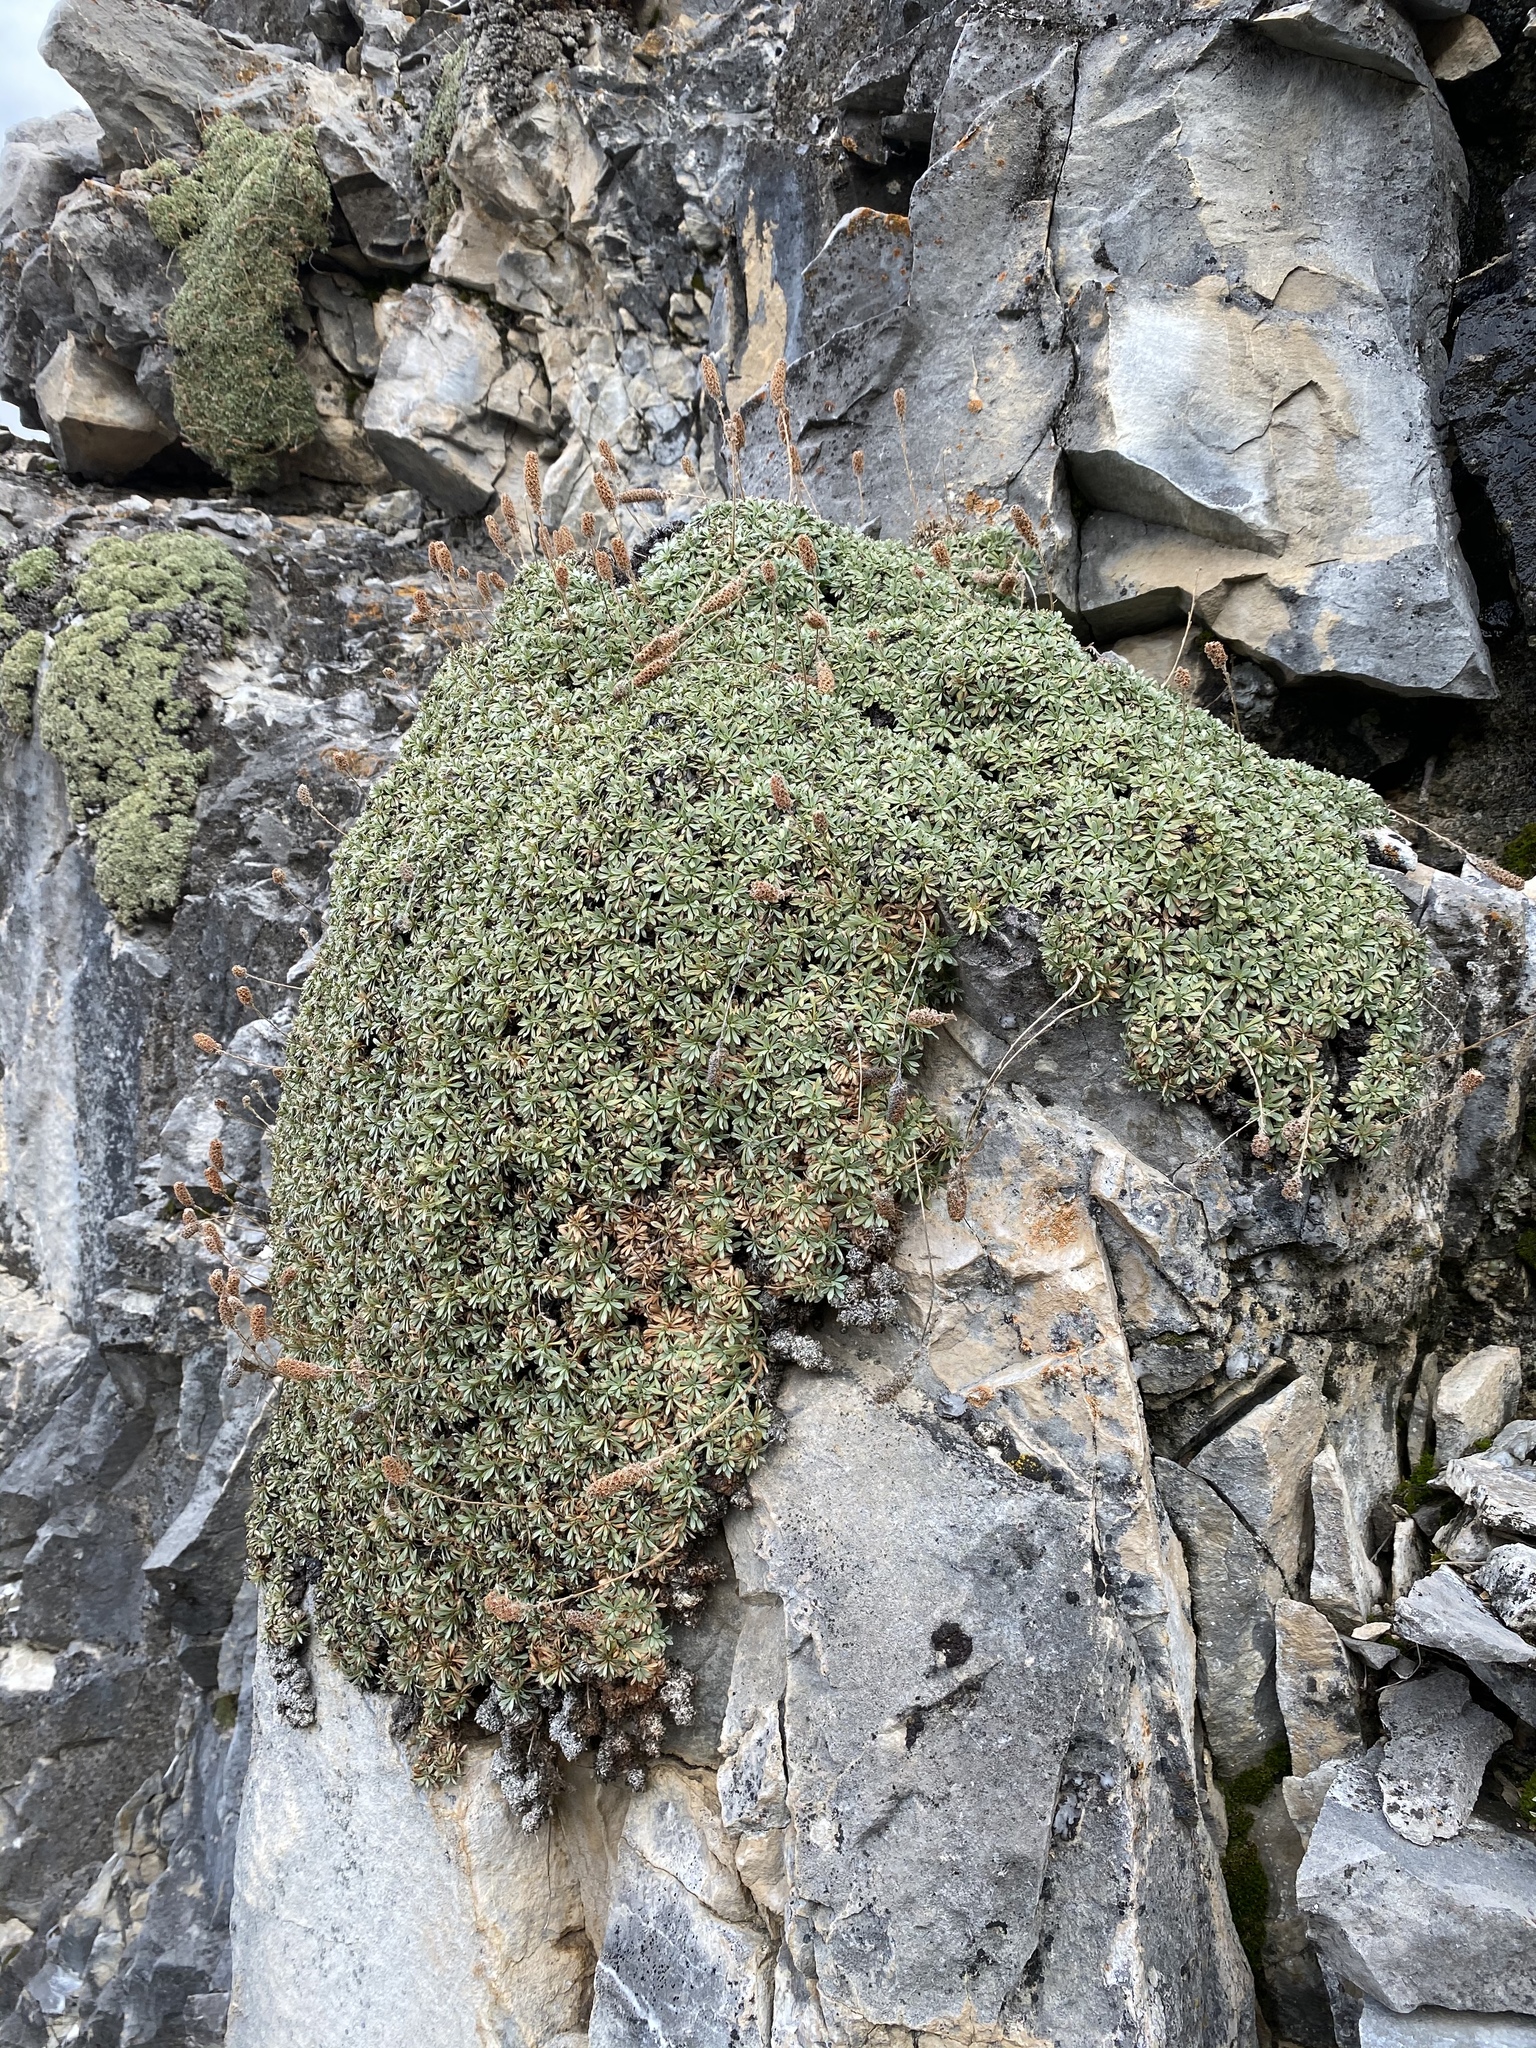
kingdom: Plantae
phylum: Tracheophyta
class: Magnoliopsida
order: Rosales
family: Rosaceae
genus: Petrophytum
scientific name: Petrophytum caespitosum
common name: Mat rockspirea
